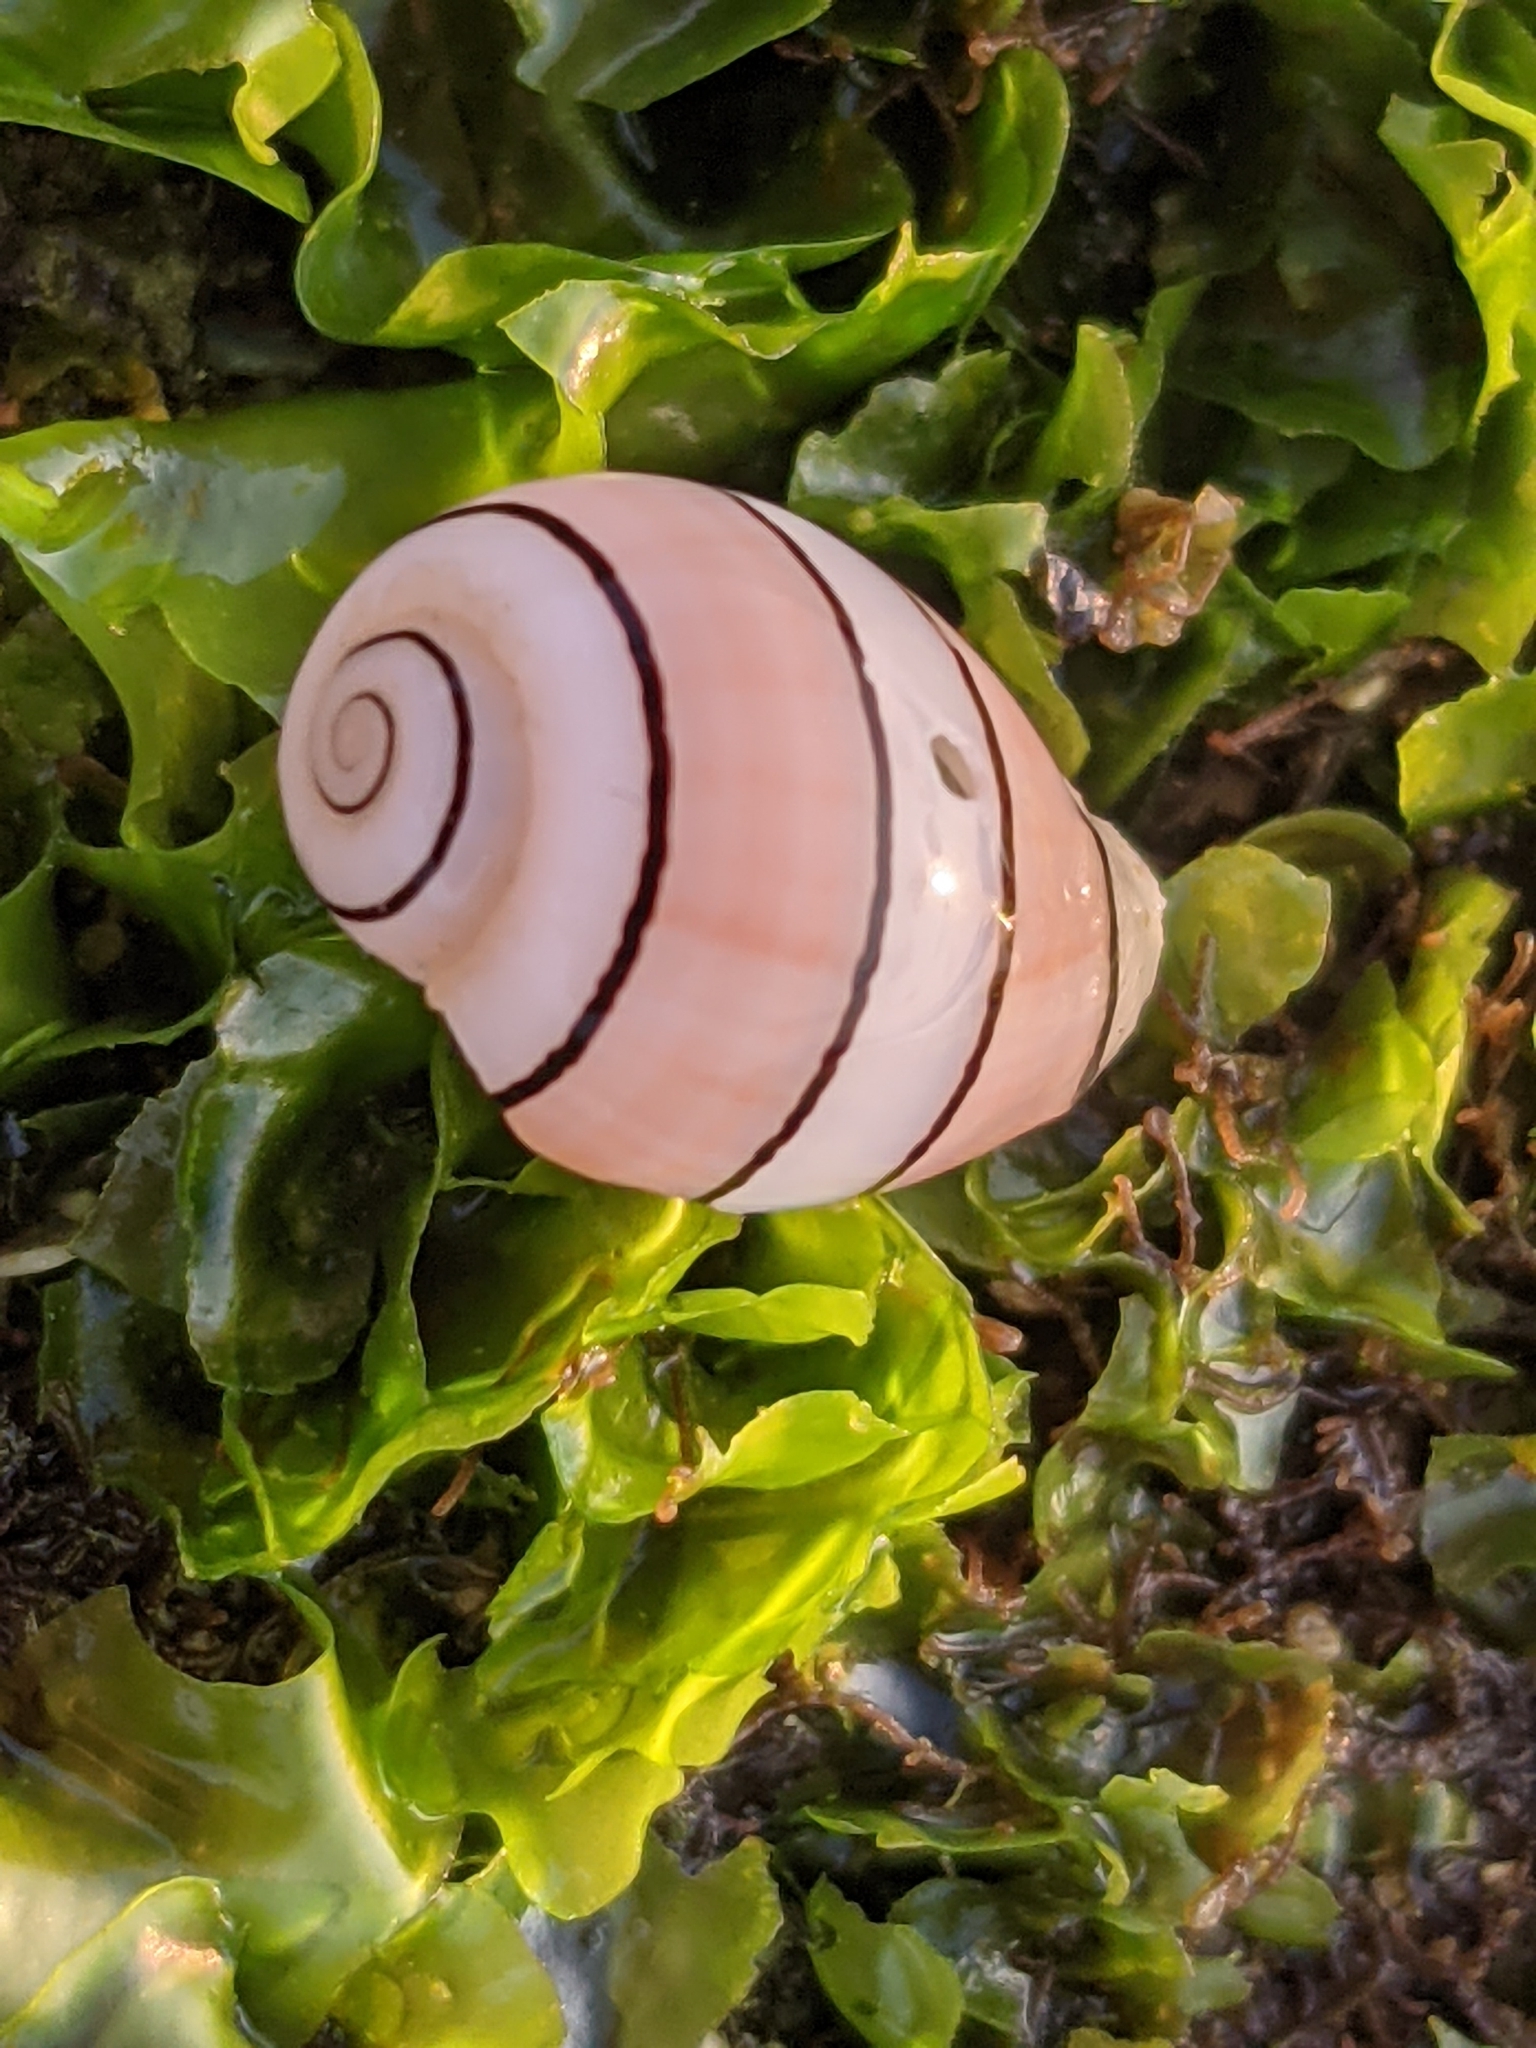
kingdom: Animalia
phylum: Mollusca
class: Gastropoda
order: Cephalaspidea
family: Aplustridae
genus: Aplustrum
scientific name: Aplustrum amplustre
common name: Royal paperbubble
